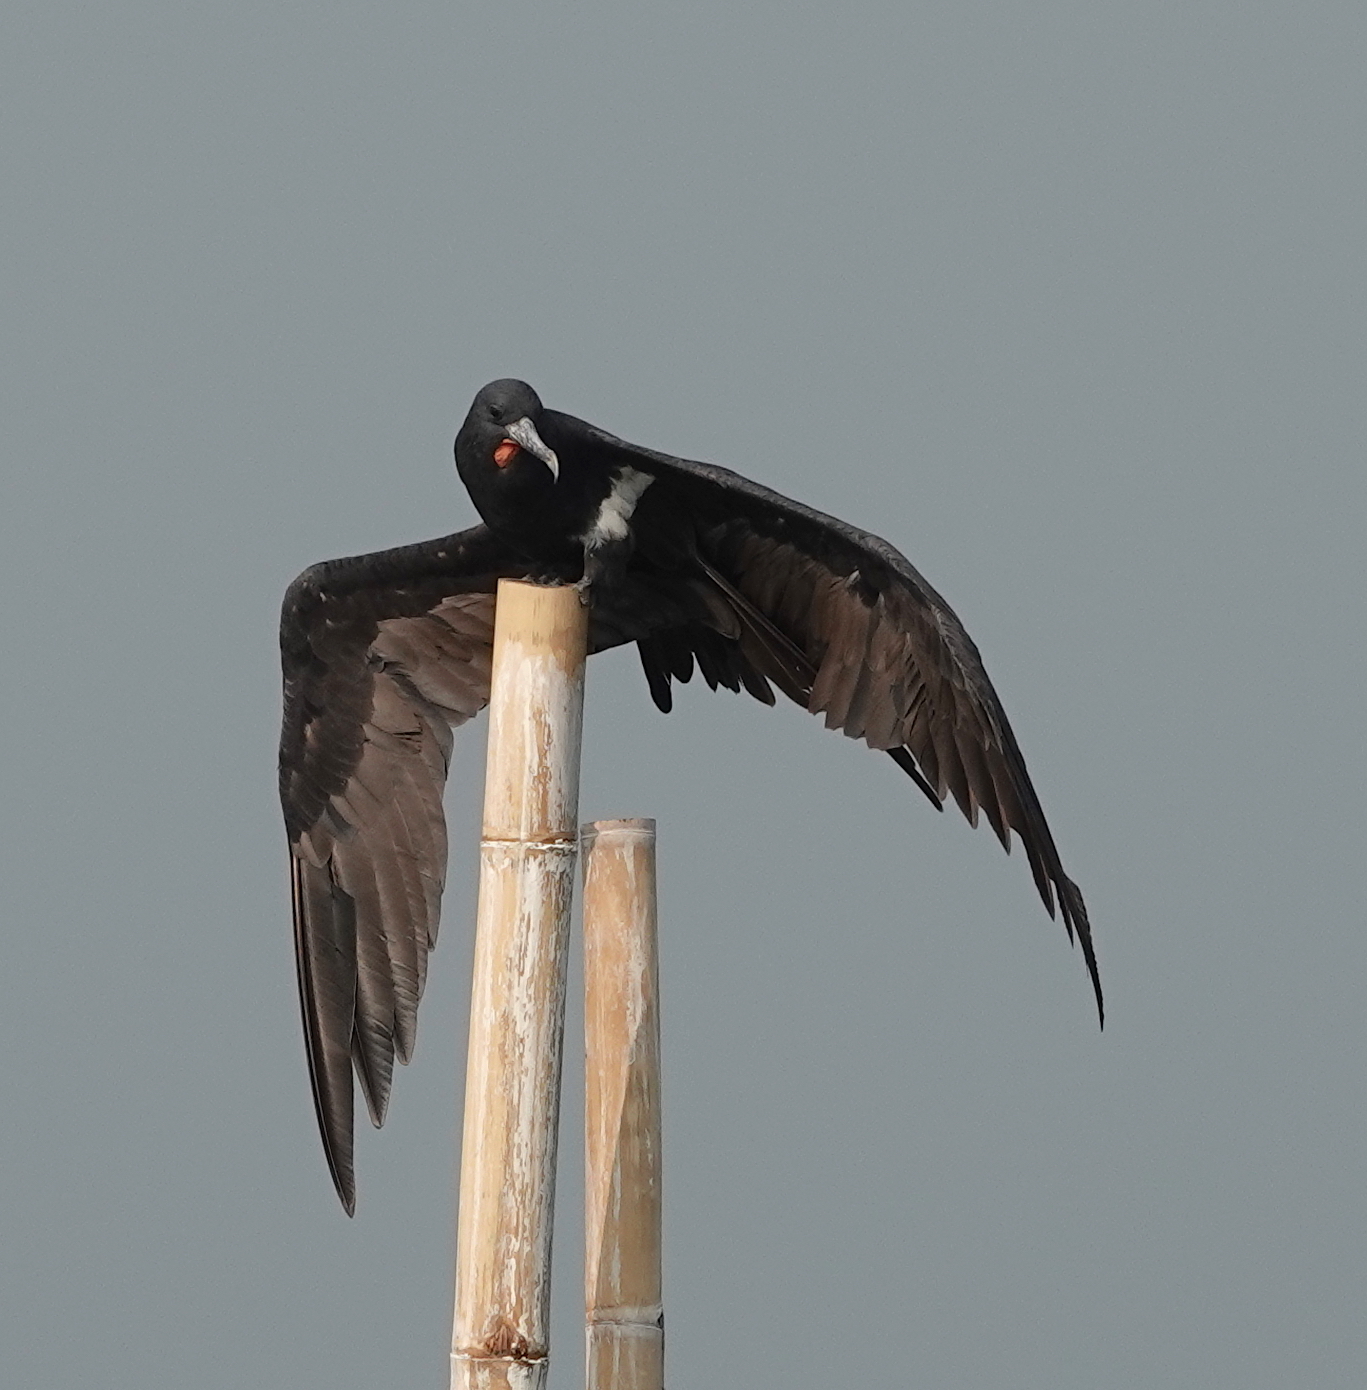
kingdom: Animalia
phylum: Chordata
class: Aves
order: Suliformes
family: Fregatidae
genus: Fregata
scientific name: Fregata ariel
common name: Lesser frigatebird
